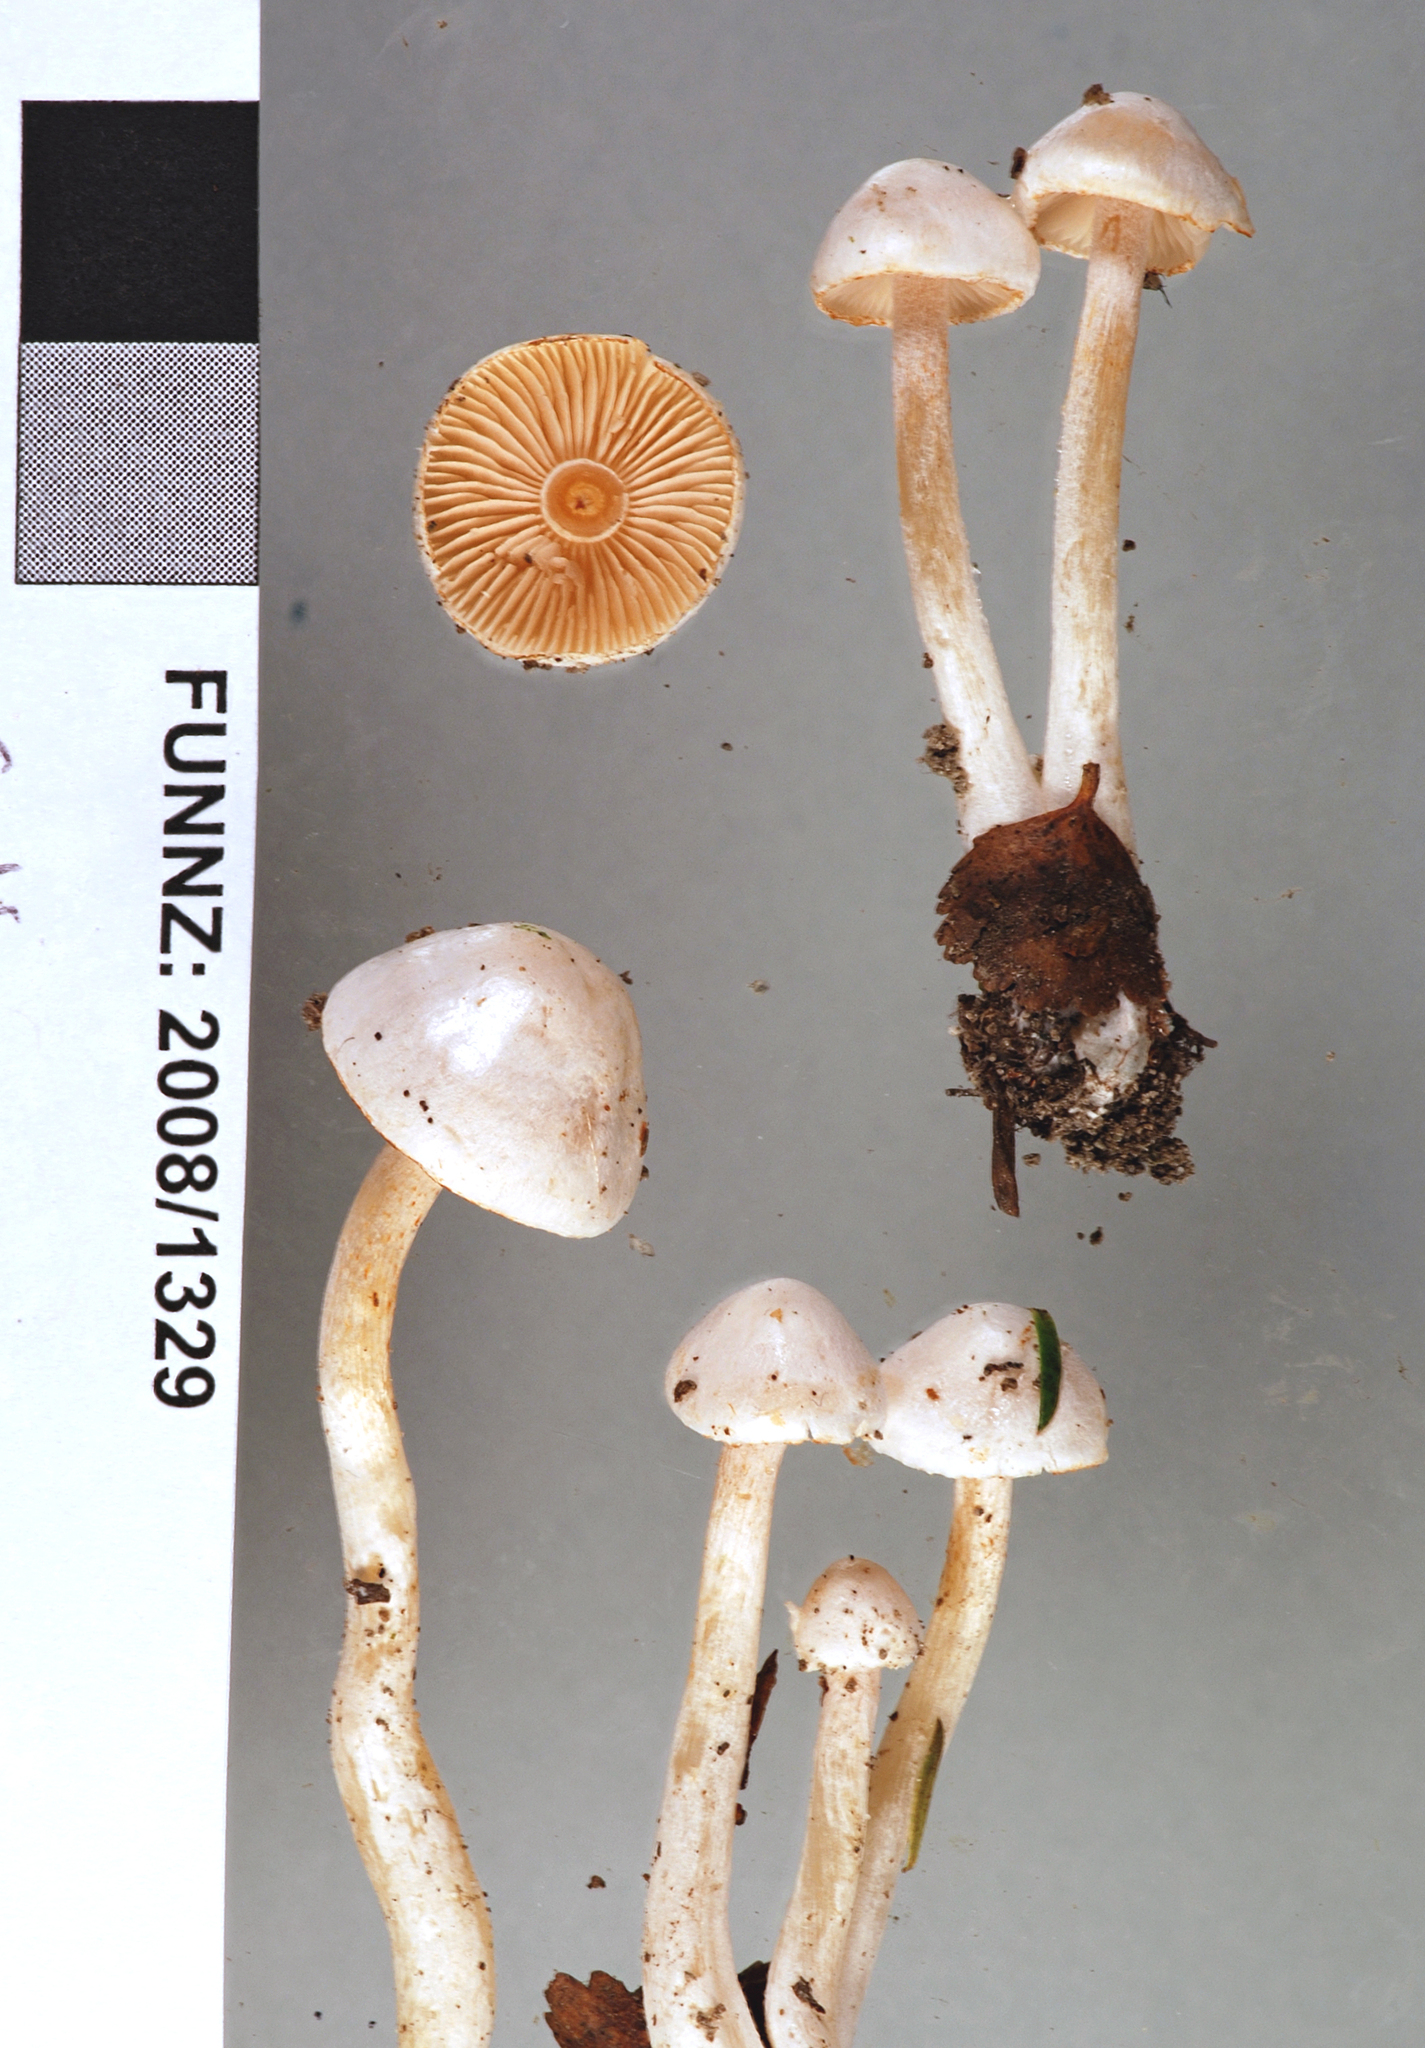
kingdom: Fungi
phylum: Basidiomycota
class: Agaricomycetes
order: Agaricales
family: Cortinariaceae
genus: Thaxterogaster
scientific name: Thaxterogaster
